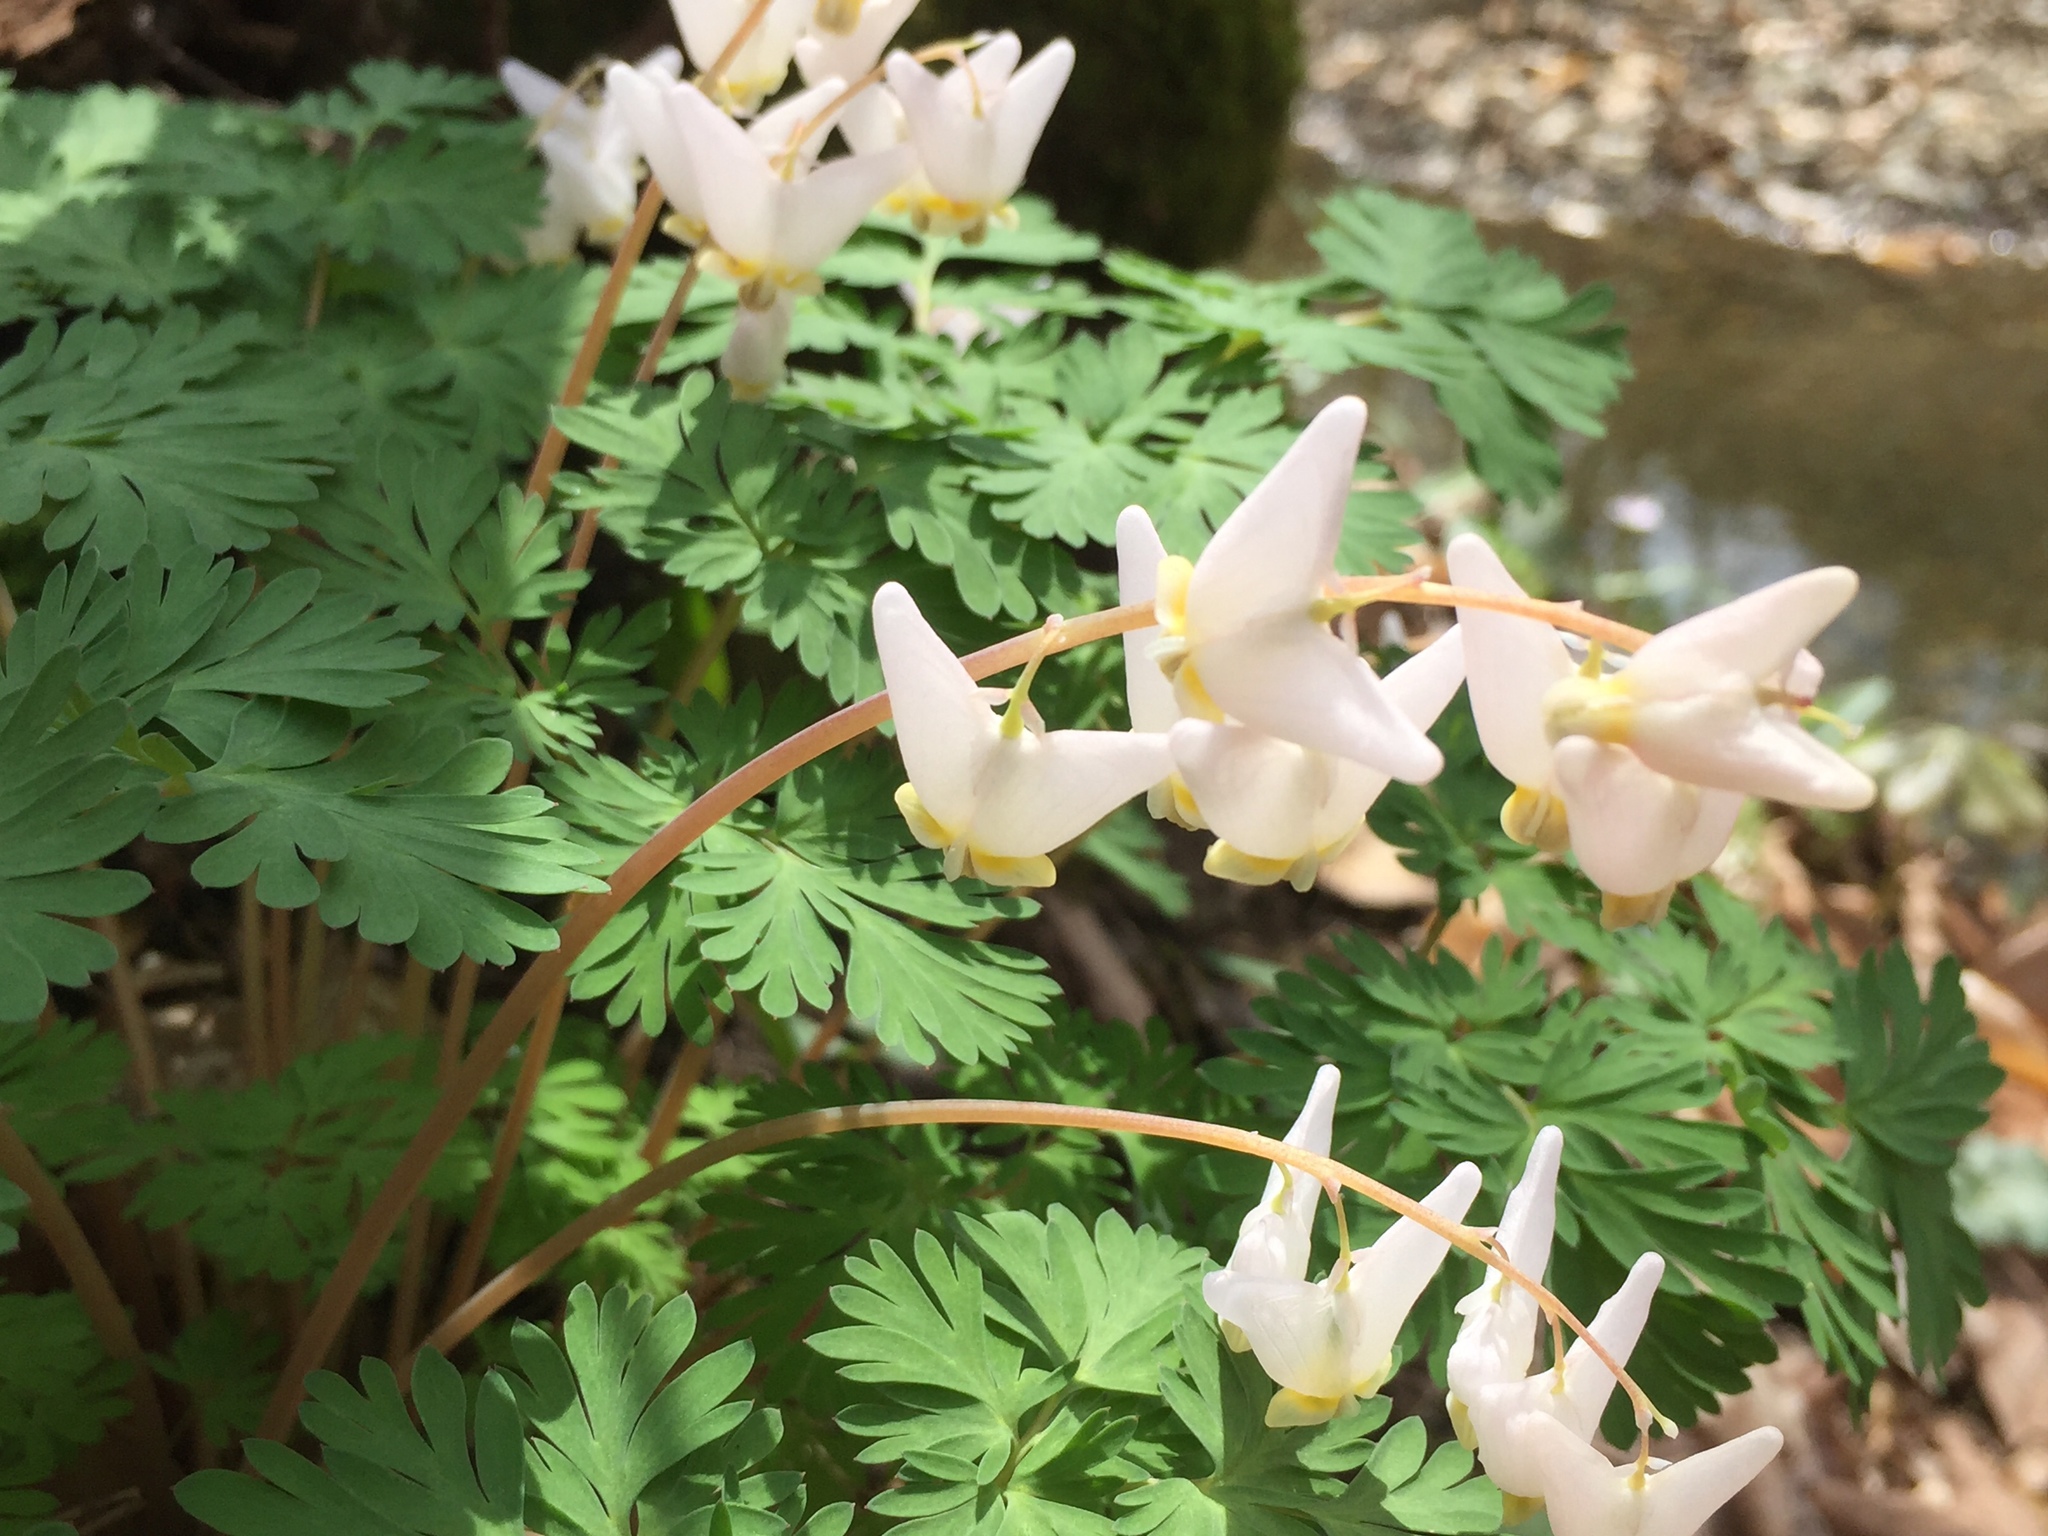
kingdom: Plantae
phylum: Tracheophyta
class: Magnoliopsida
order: Ranunculales
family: Papaveraceae
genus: Dicentra
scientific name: Dicentra cucullaria
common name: Dutchman's breeches
